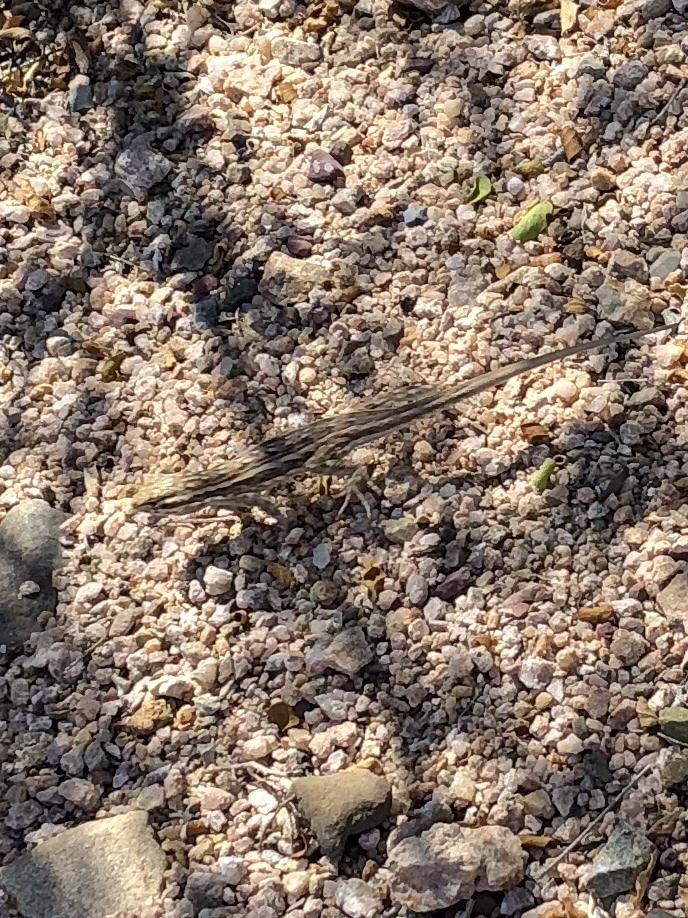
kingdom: Animalia
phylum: Chordata
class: Squamata
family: Phrynosomatidae
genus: Uta
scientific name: Uta stansburiana
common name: Side-blotched lizard
